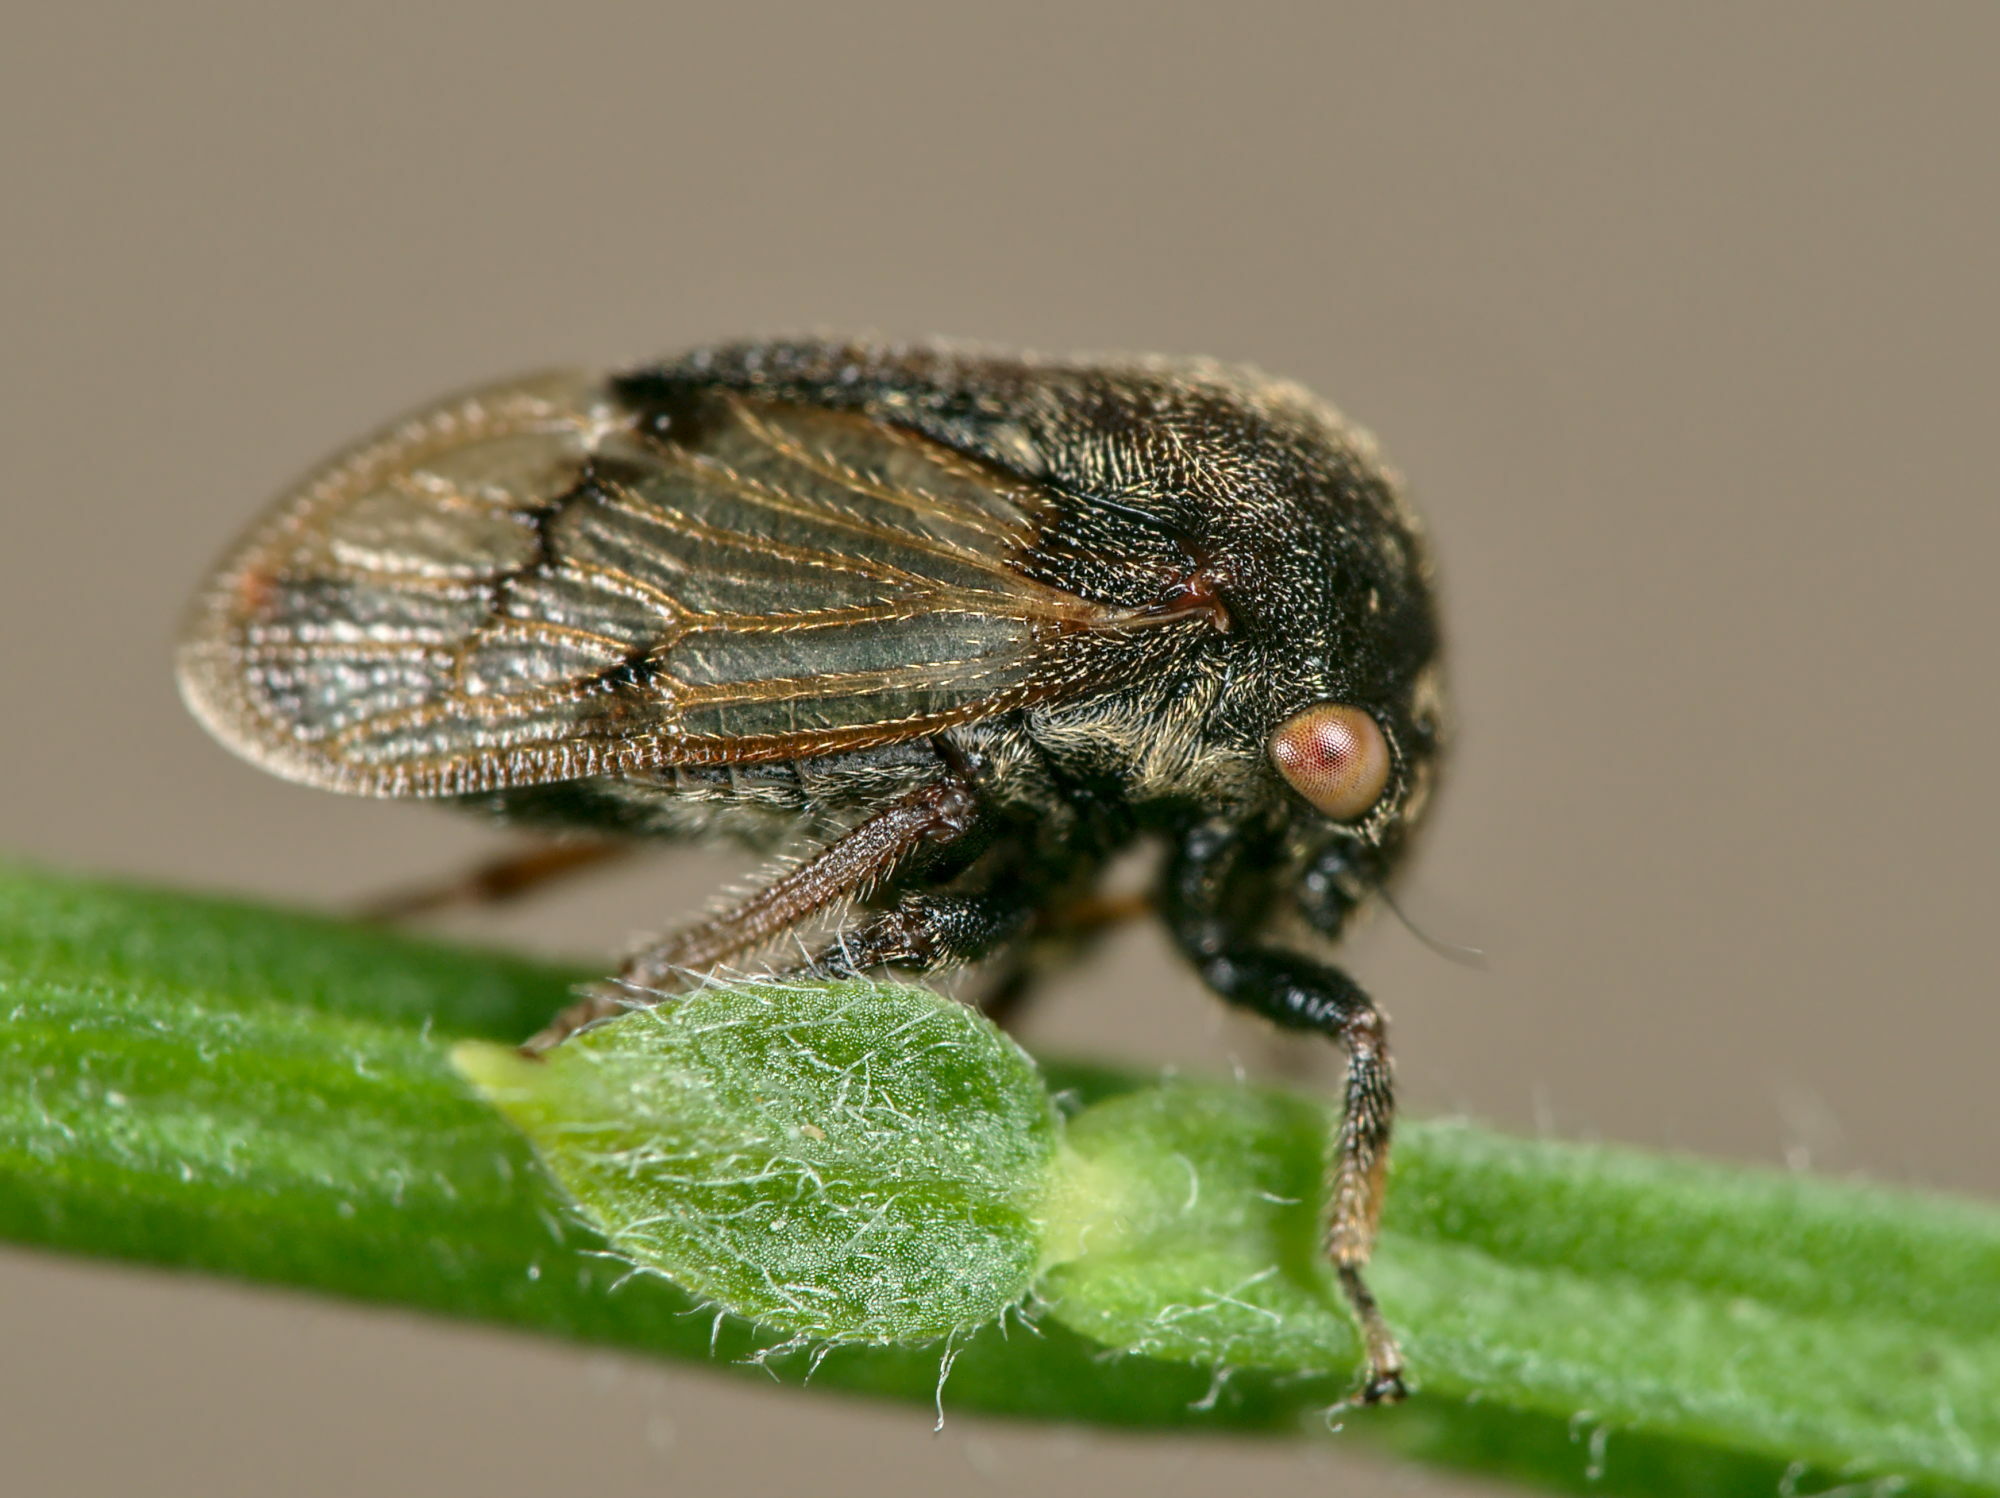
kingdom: Animalia
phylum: Arthropoda
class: Insecta
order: Hemiptera
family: Membracidae
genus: Gargara
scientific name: Gargara genistae
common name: Treehopper
